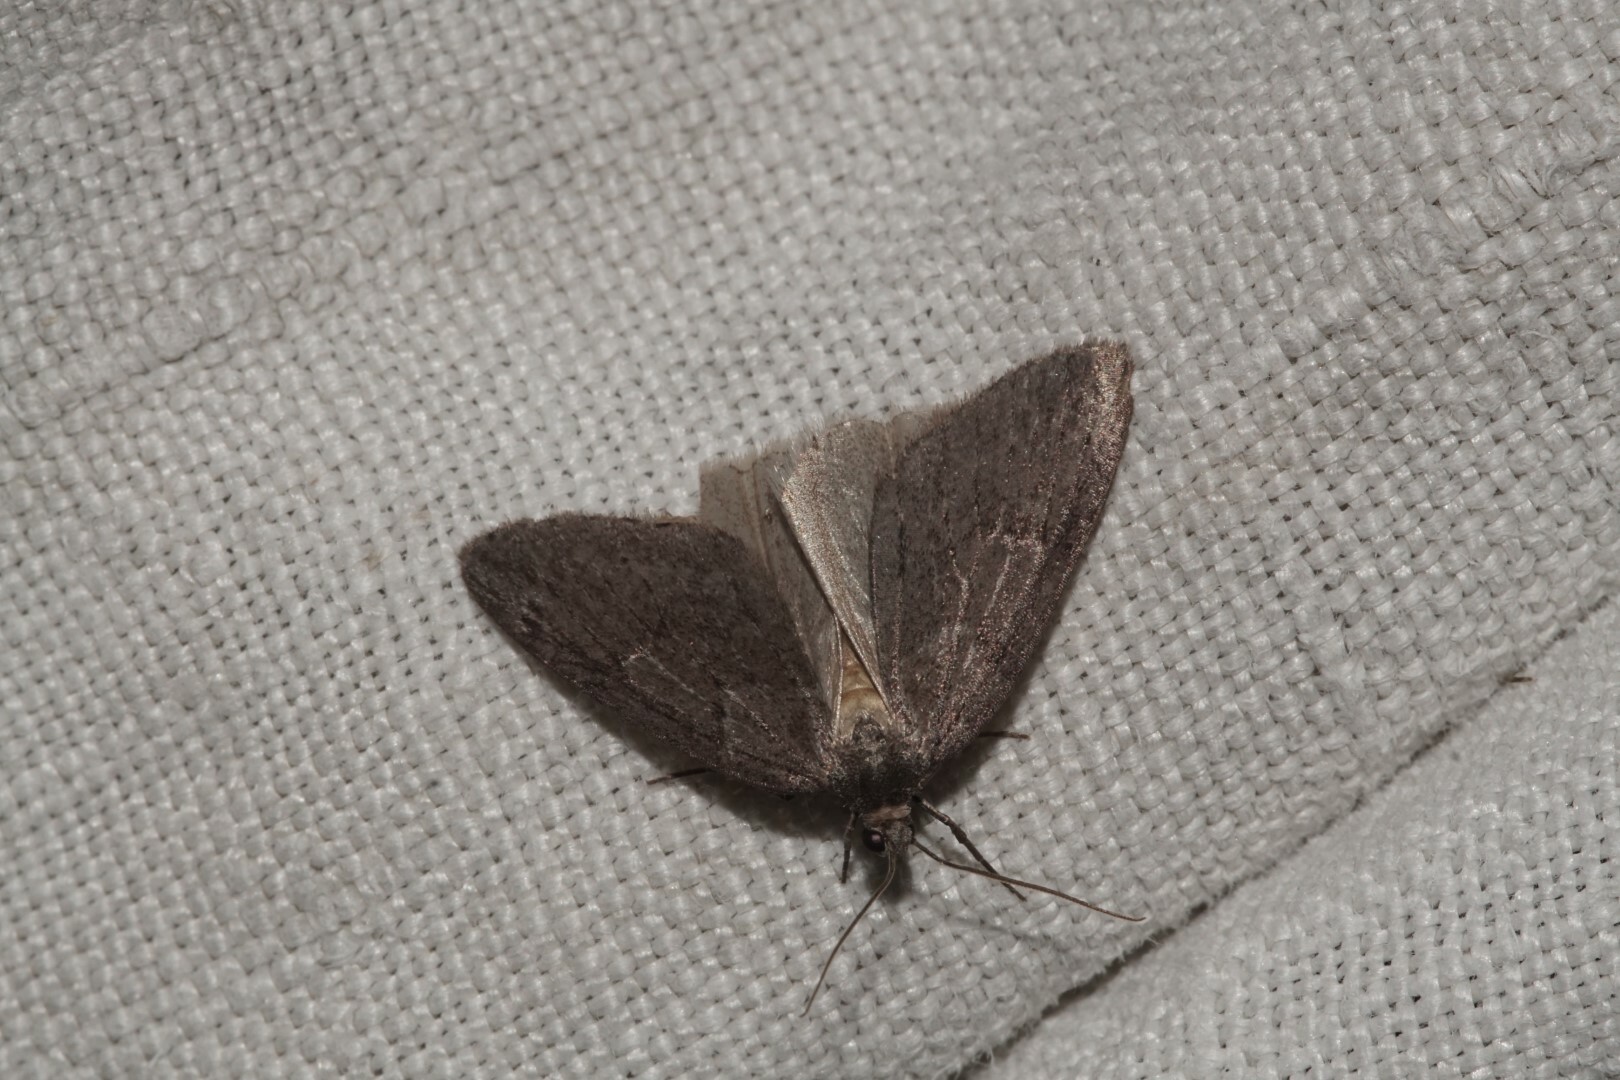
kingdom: Animalia
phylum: Arthropoda
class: Insecta
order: Lepidoptera
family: Geometridae
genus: Pachycnemia
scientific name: Pachycnemia hippocastanaria
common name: Horse chestnut
